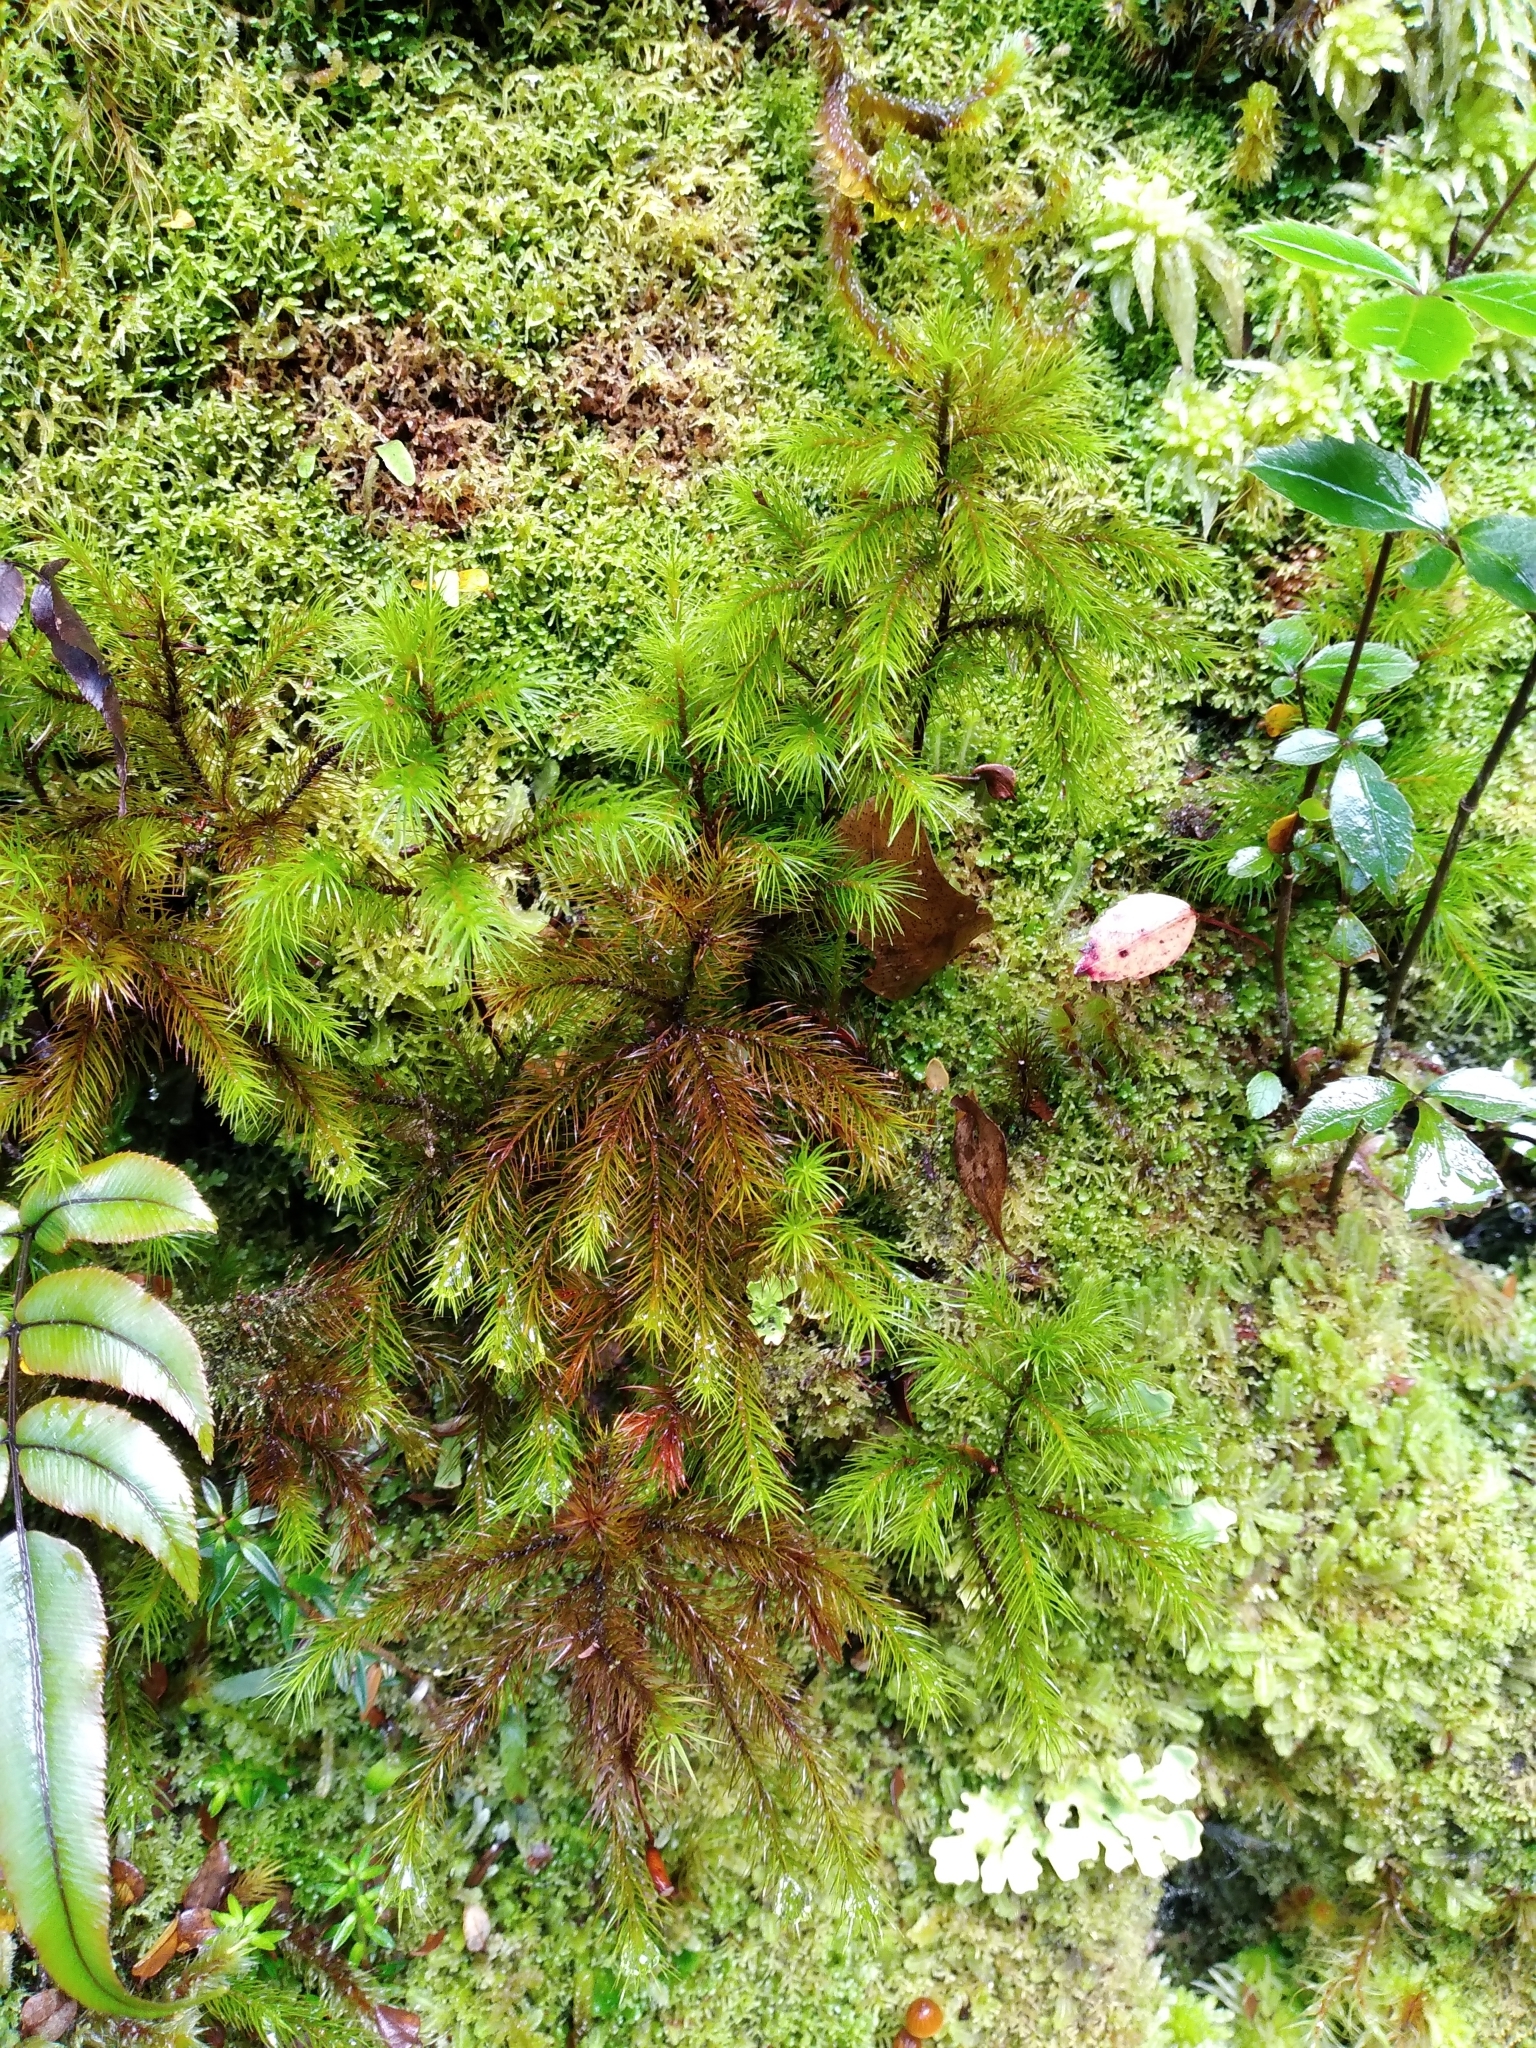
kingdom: Plantae
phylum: Bryophyta
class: Polytrichopsida
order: Polytrichales
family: Polytrichaceae
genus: Dendroligotrichum
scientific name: Dendroligotrichum tongariroense
